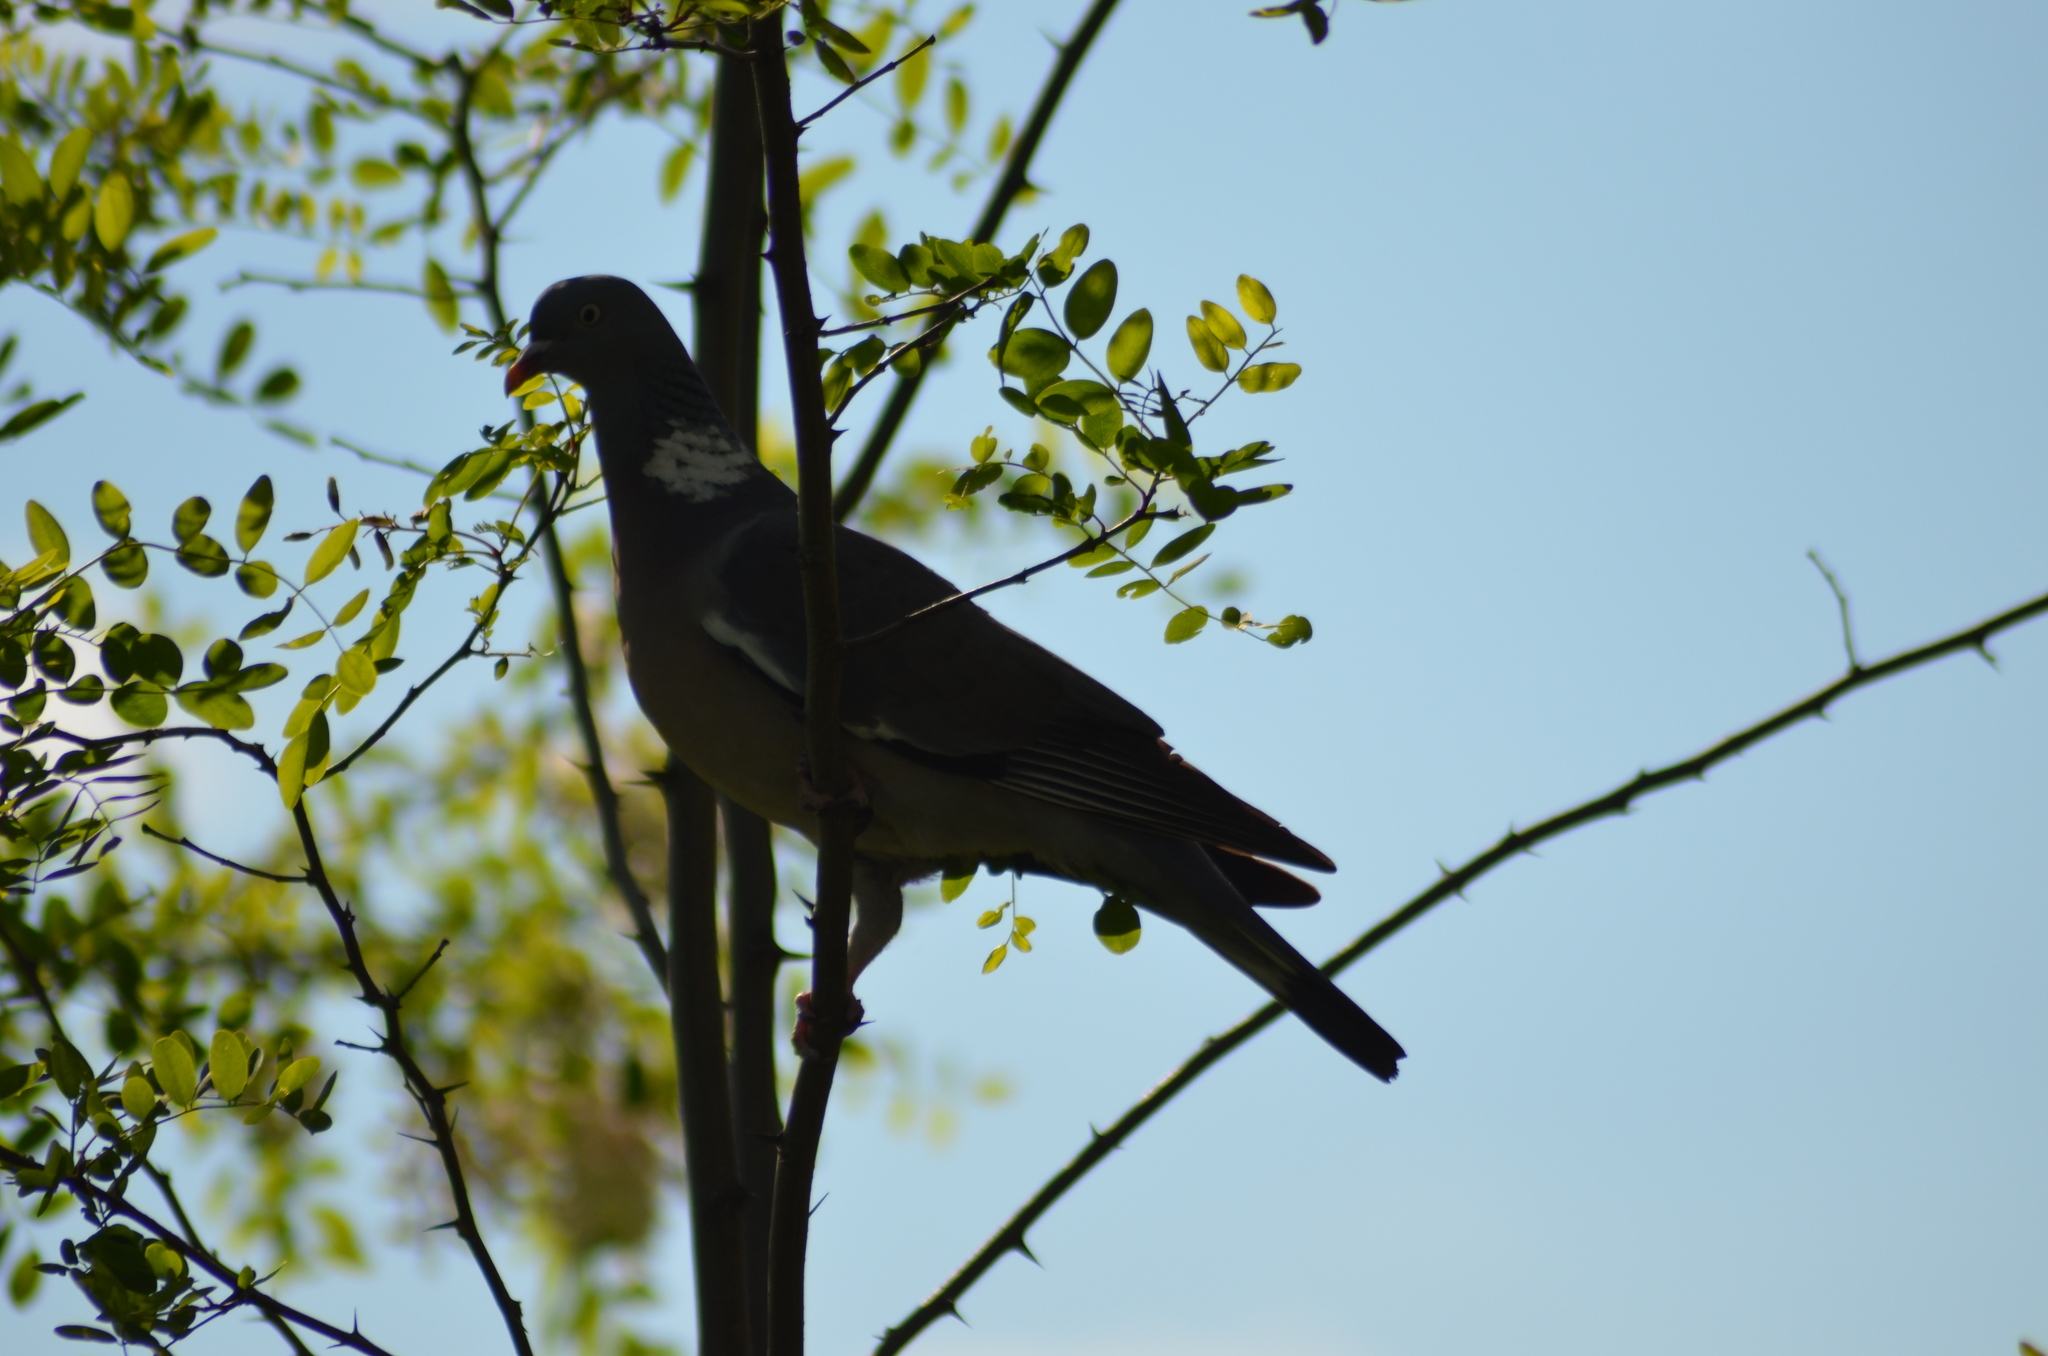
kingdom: Animalia
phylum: Chordata
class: Aves
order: Columbiformes
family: Columbidae
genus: Columba
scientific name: Columba palumbus
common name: Common wood pigeon
